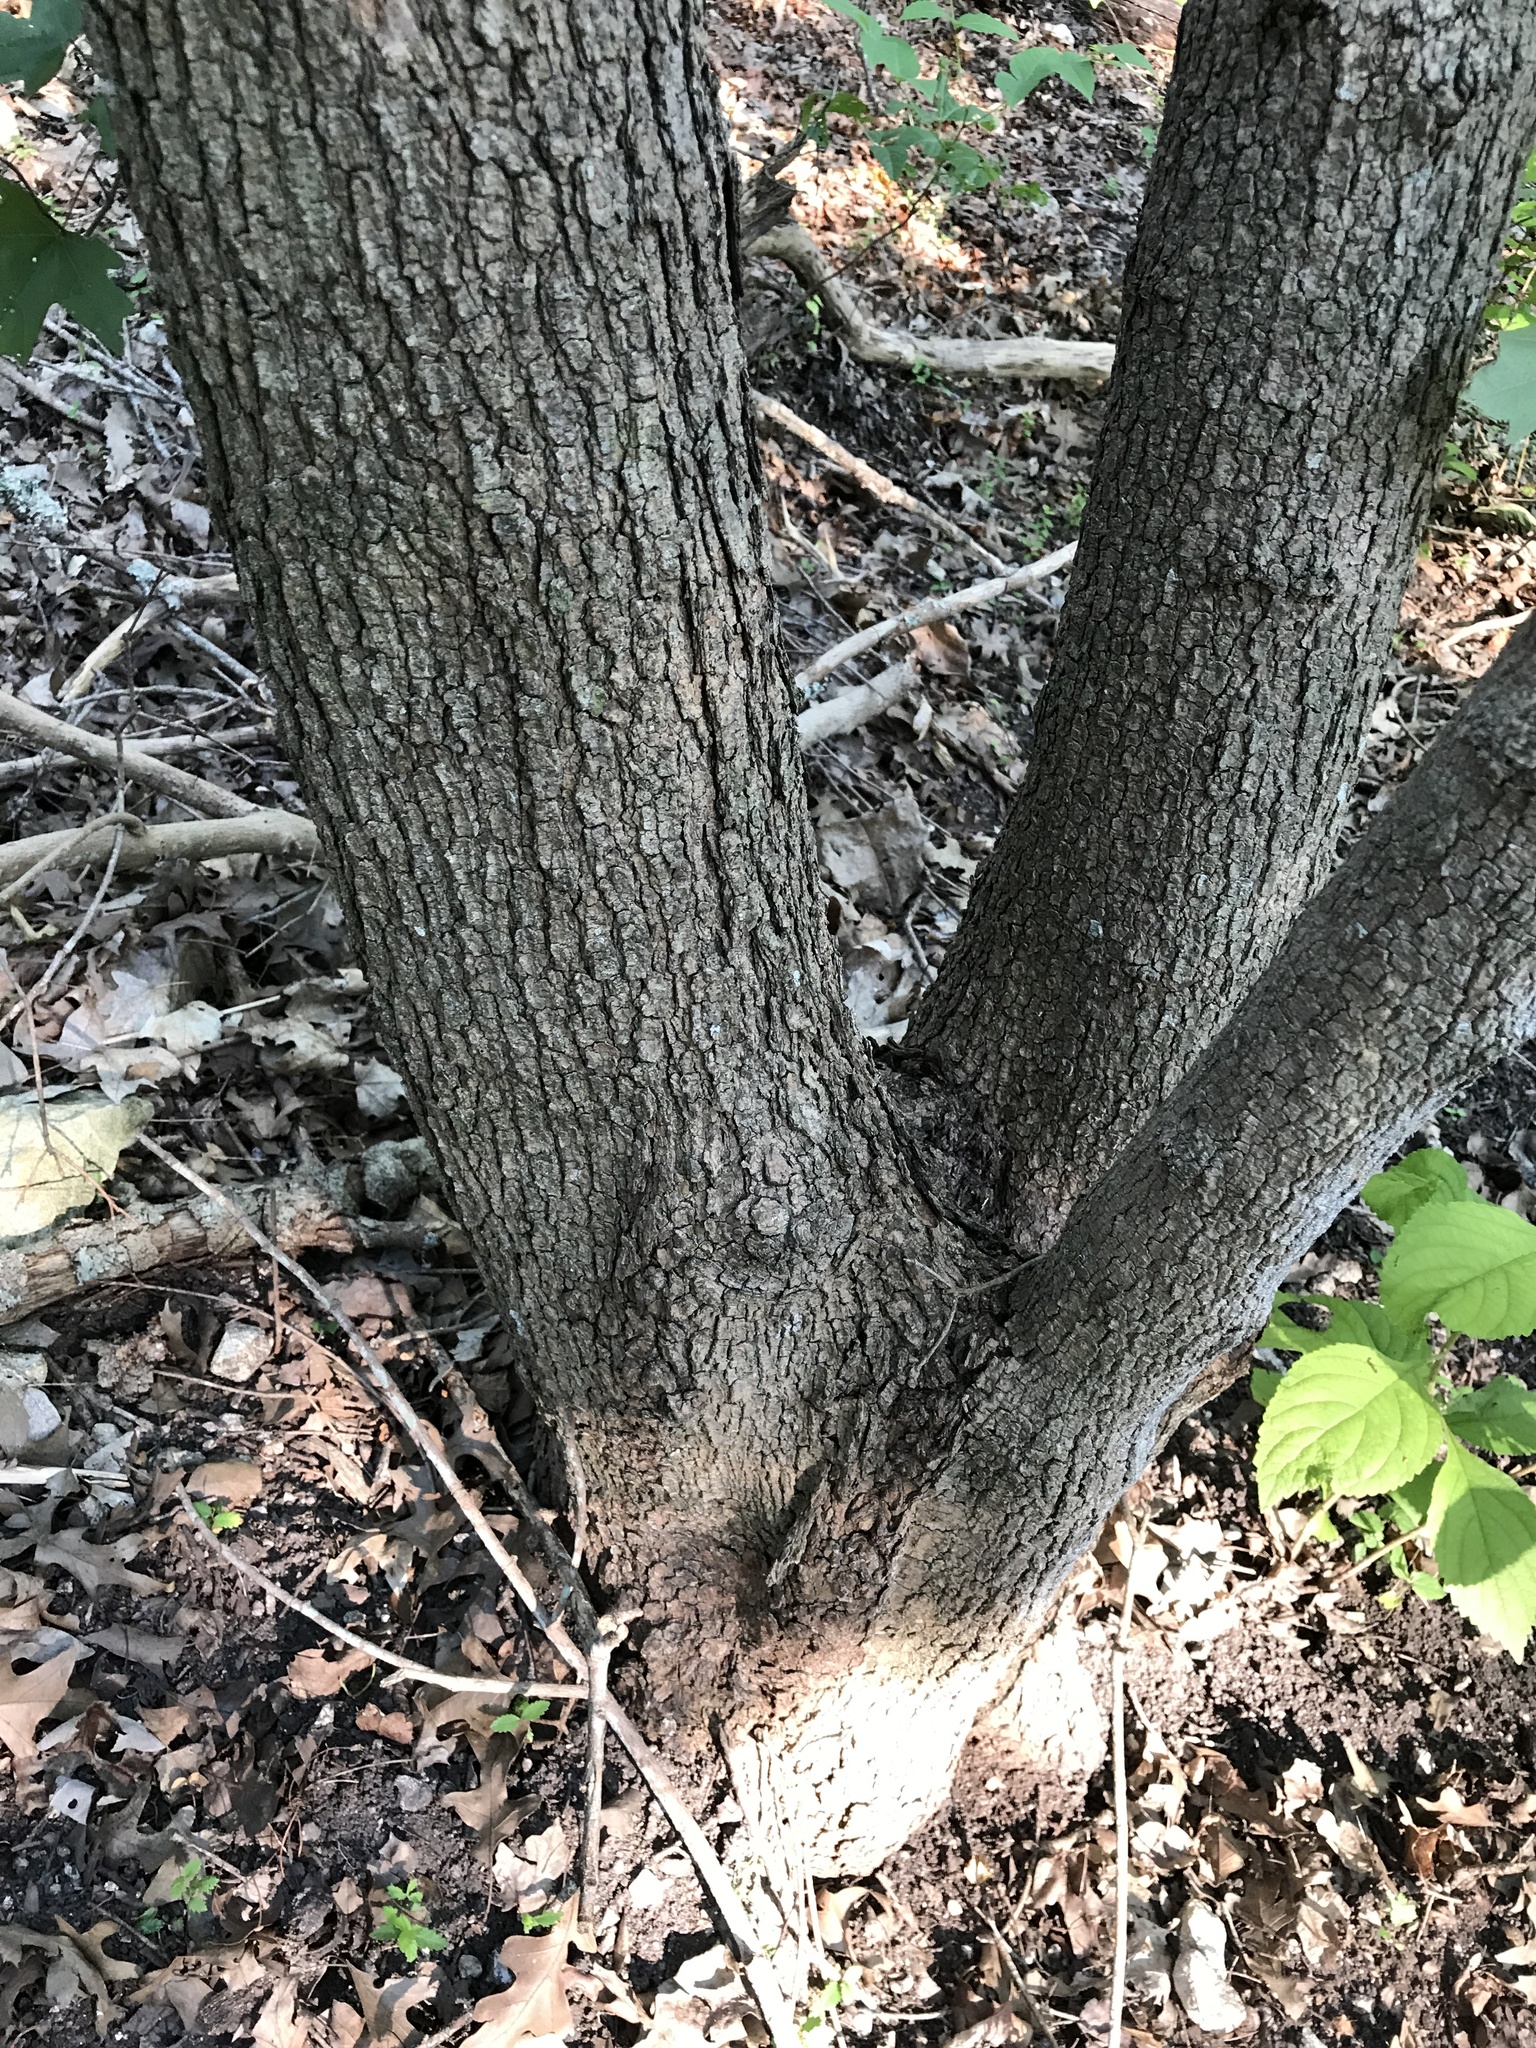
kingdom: Plantae
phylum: Tracheophyta
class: Magnoliopsida
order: Sapindales
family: Sapindaceae
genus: Acer
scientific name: Acer grandidentatum
